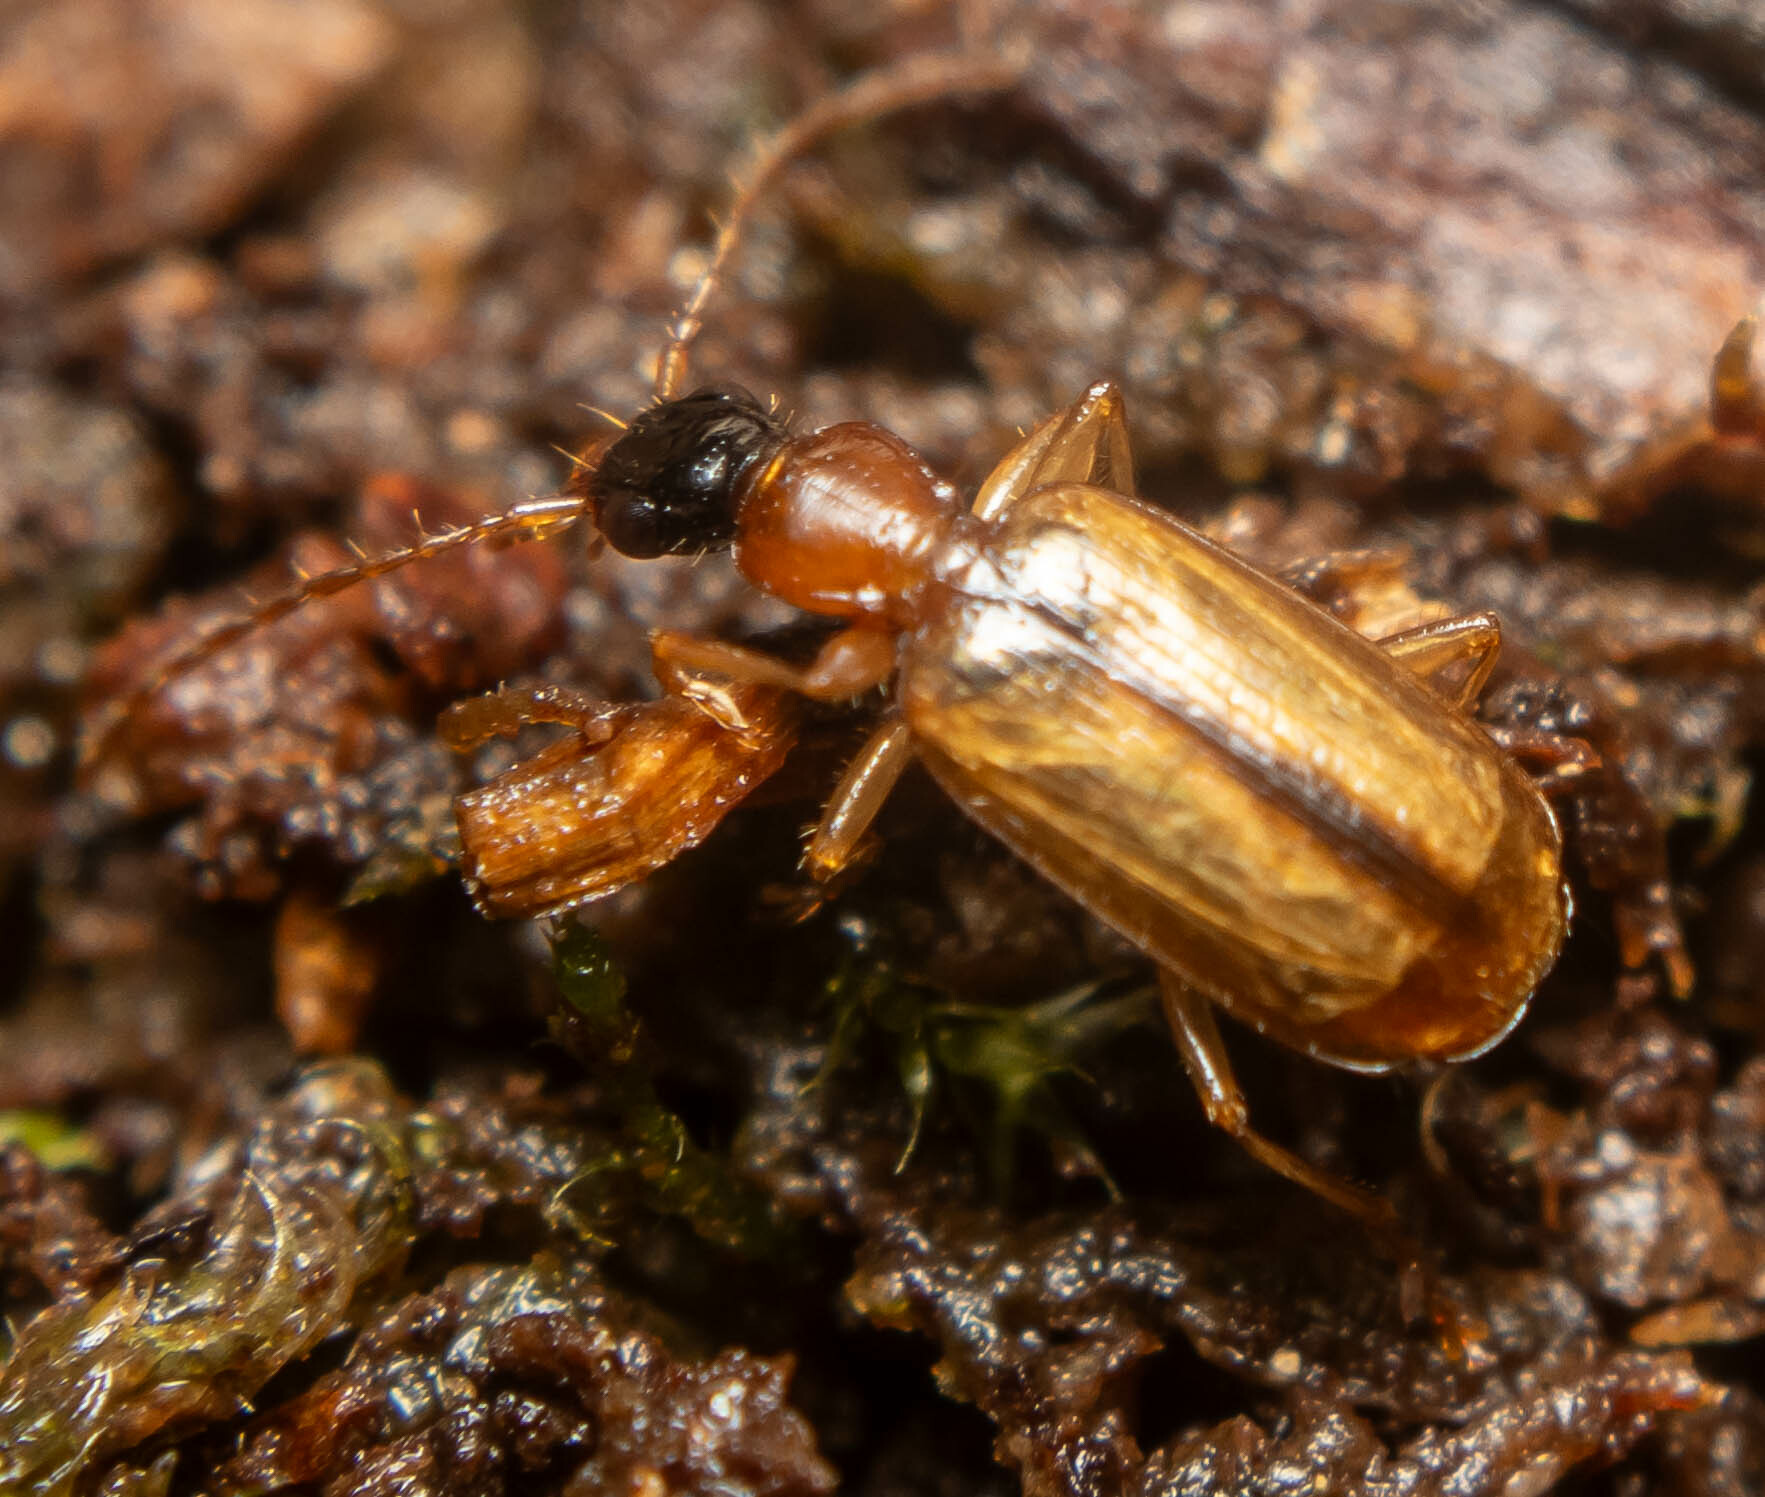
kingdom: Animalia
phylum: Arthropoda
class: Insecta
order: Coleoptera
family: Carabidae
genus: Demetrias
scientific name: Demetrias atricapillus
